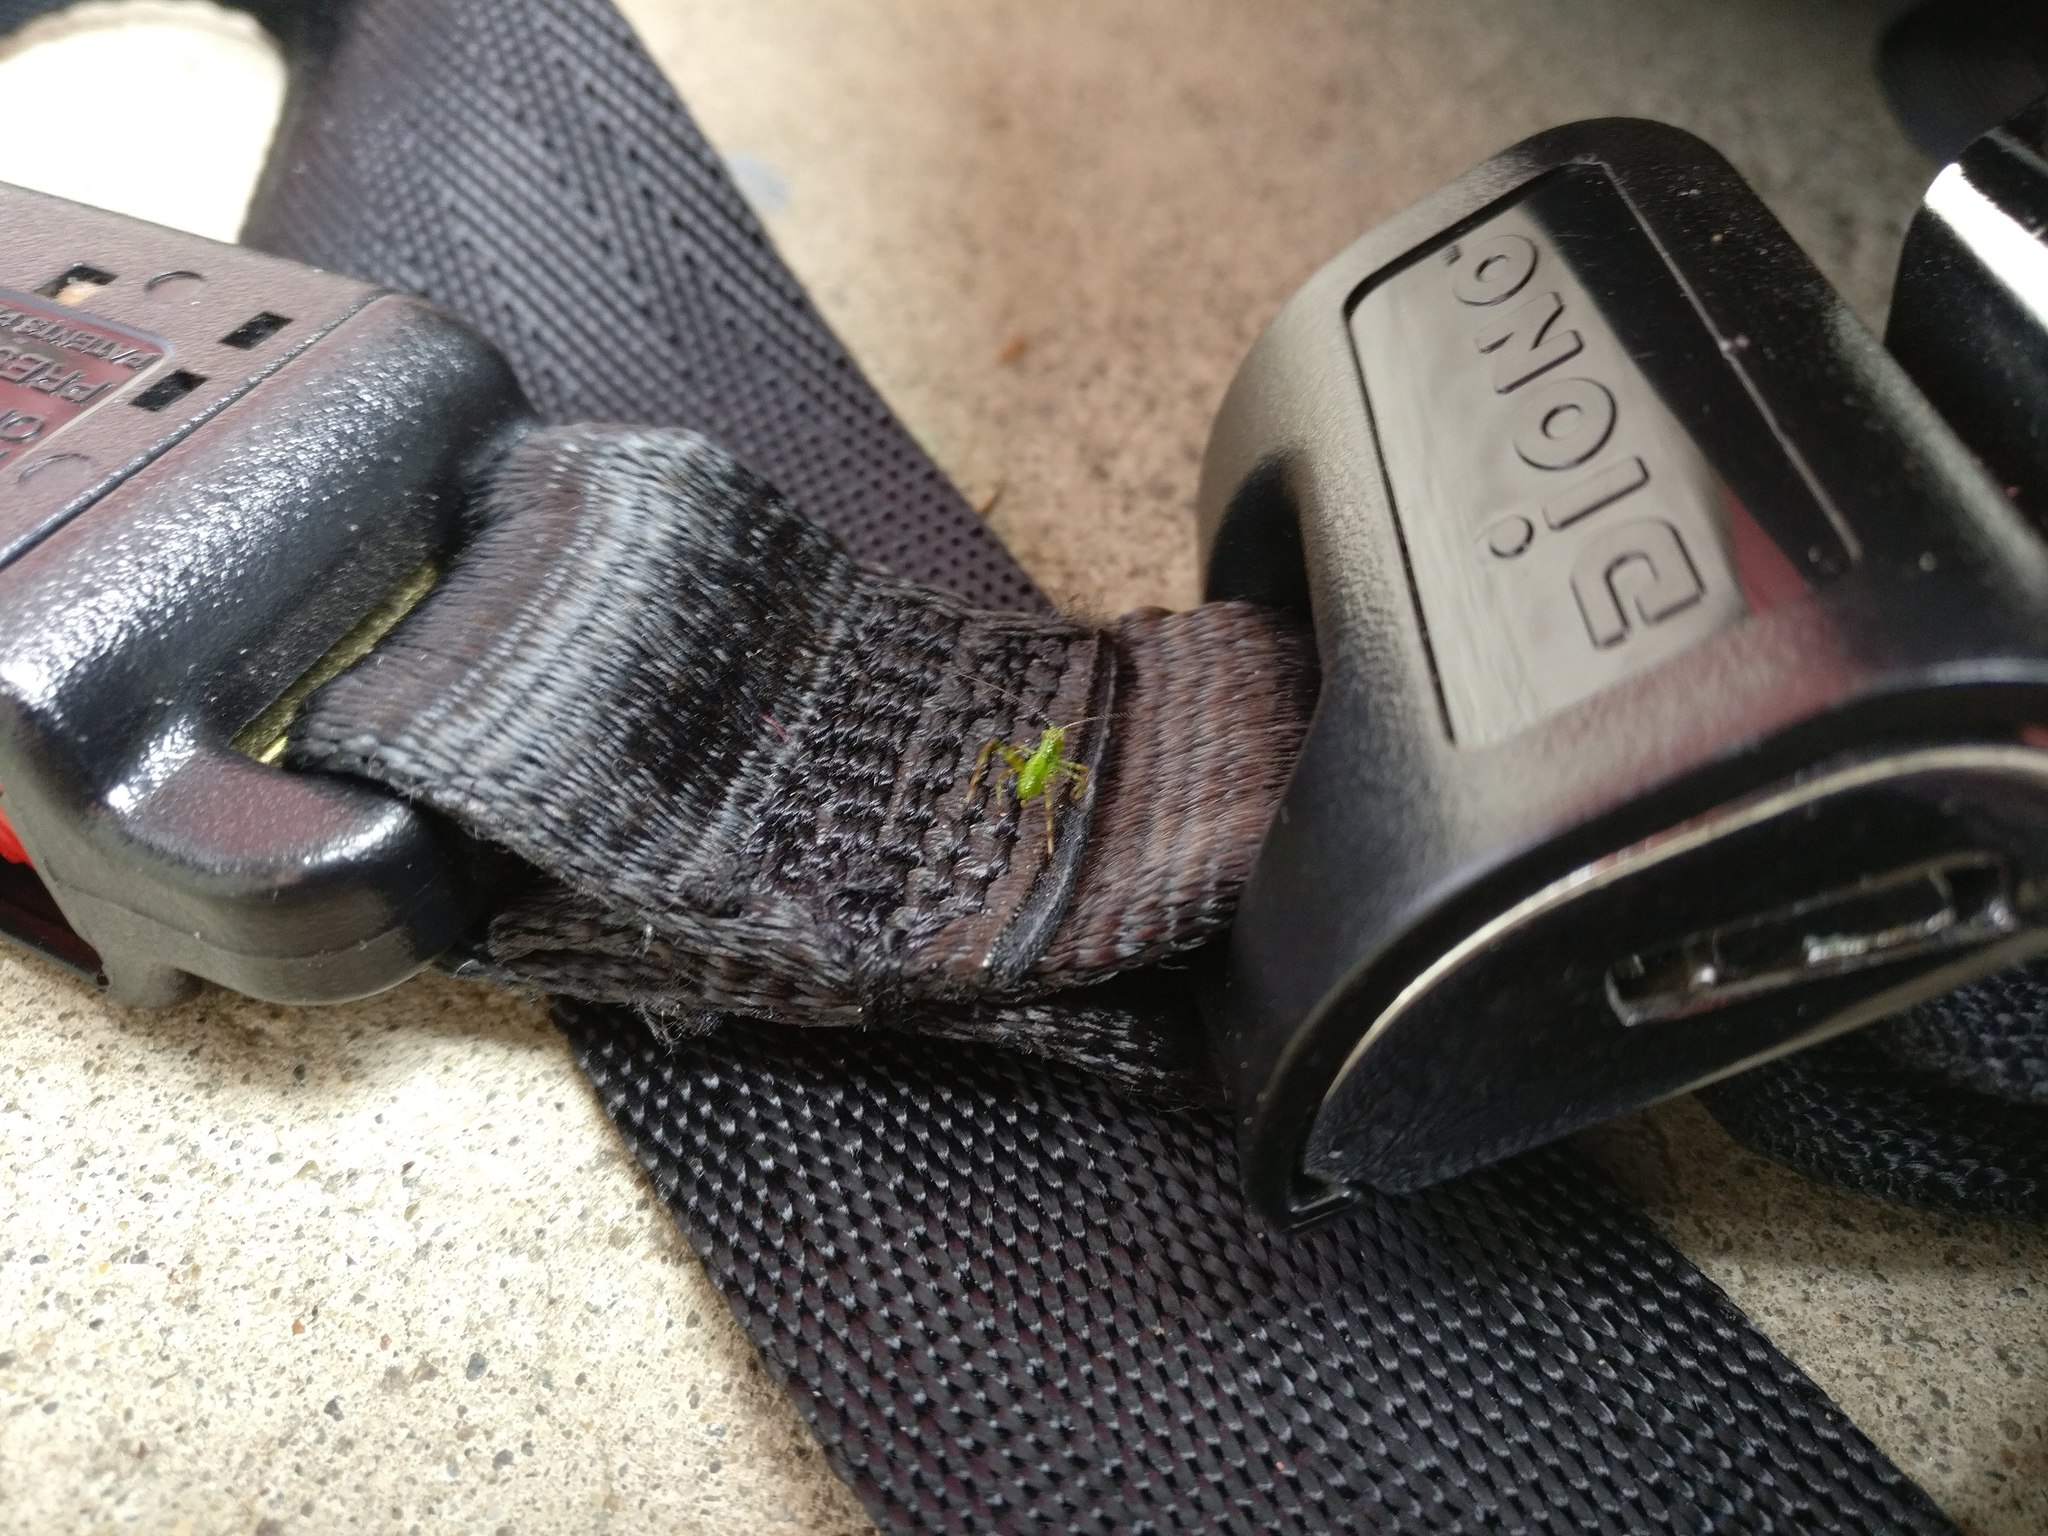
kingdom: Animalia
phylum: Arthropoda
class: Insecta
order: Orthoptera
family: Tettigoniidae
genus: Caedicia
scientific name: Caedicia simplex
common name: Common garden katydid
